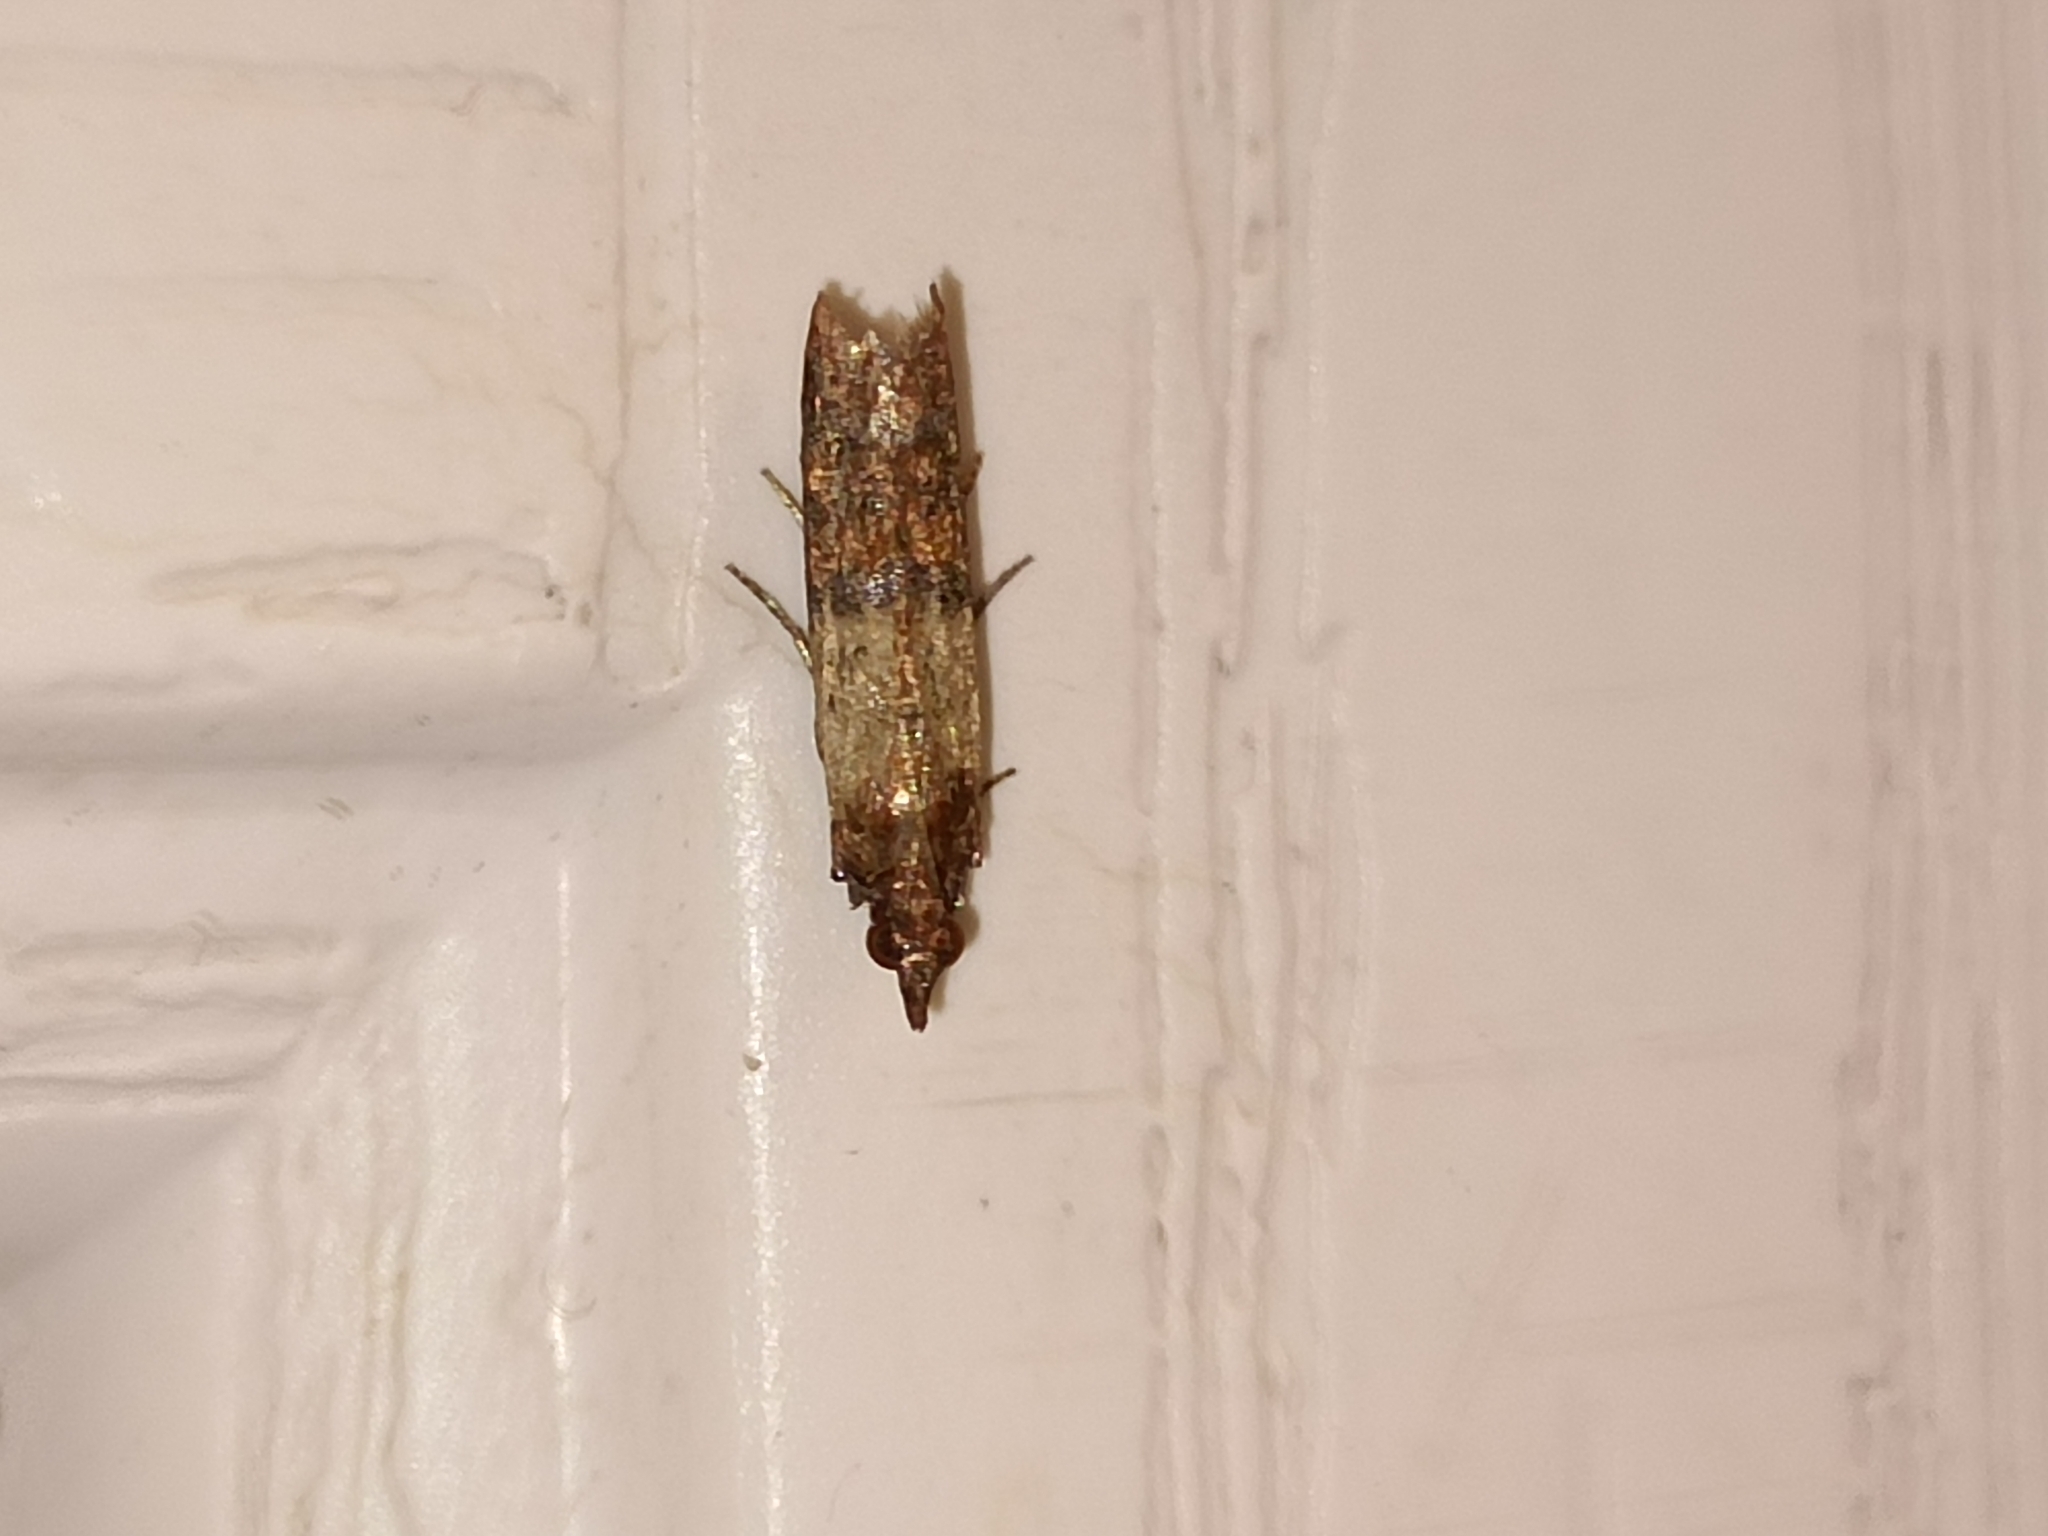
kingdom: Animalia
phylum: Arthropoda
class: Insecta
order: Lepidoptera
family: Pyralidae
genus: Plodia
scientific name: Plodia interpunctella
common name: Indian meal moth
